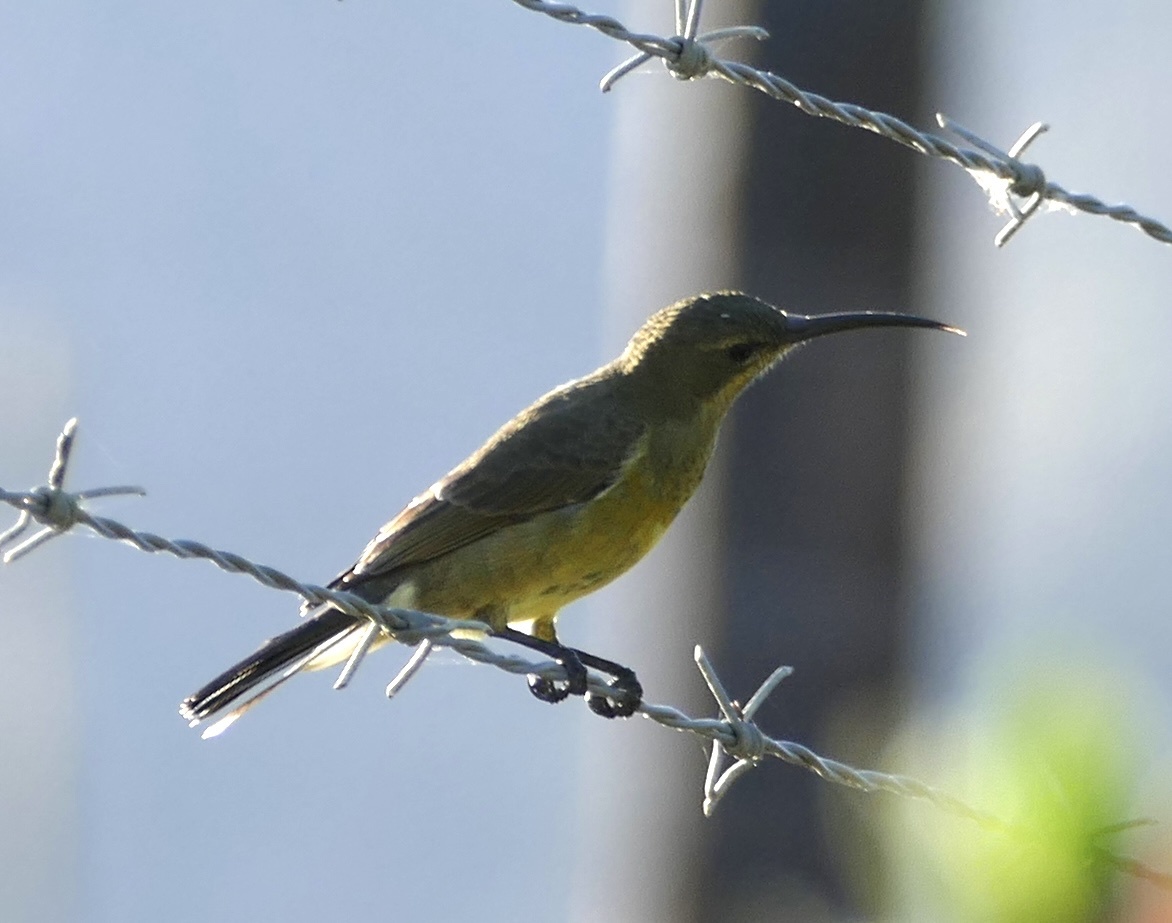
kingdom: Animalia
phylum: Chordata
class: Aves
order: Passeriformes
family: Nectariniidae
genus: Nectarinia
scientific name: Nectarinia famosa
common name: Malachite sunbird
